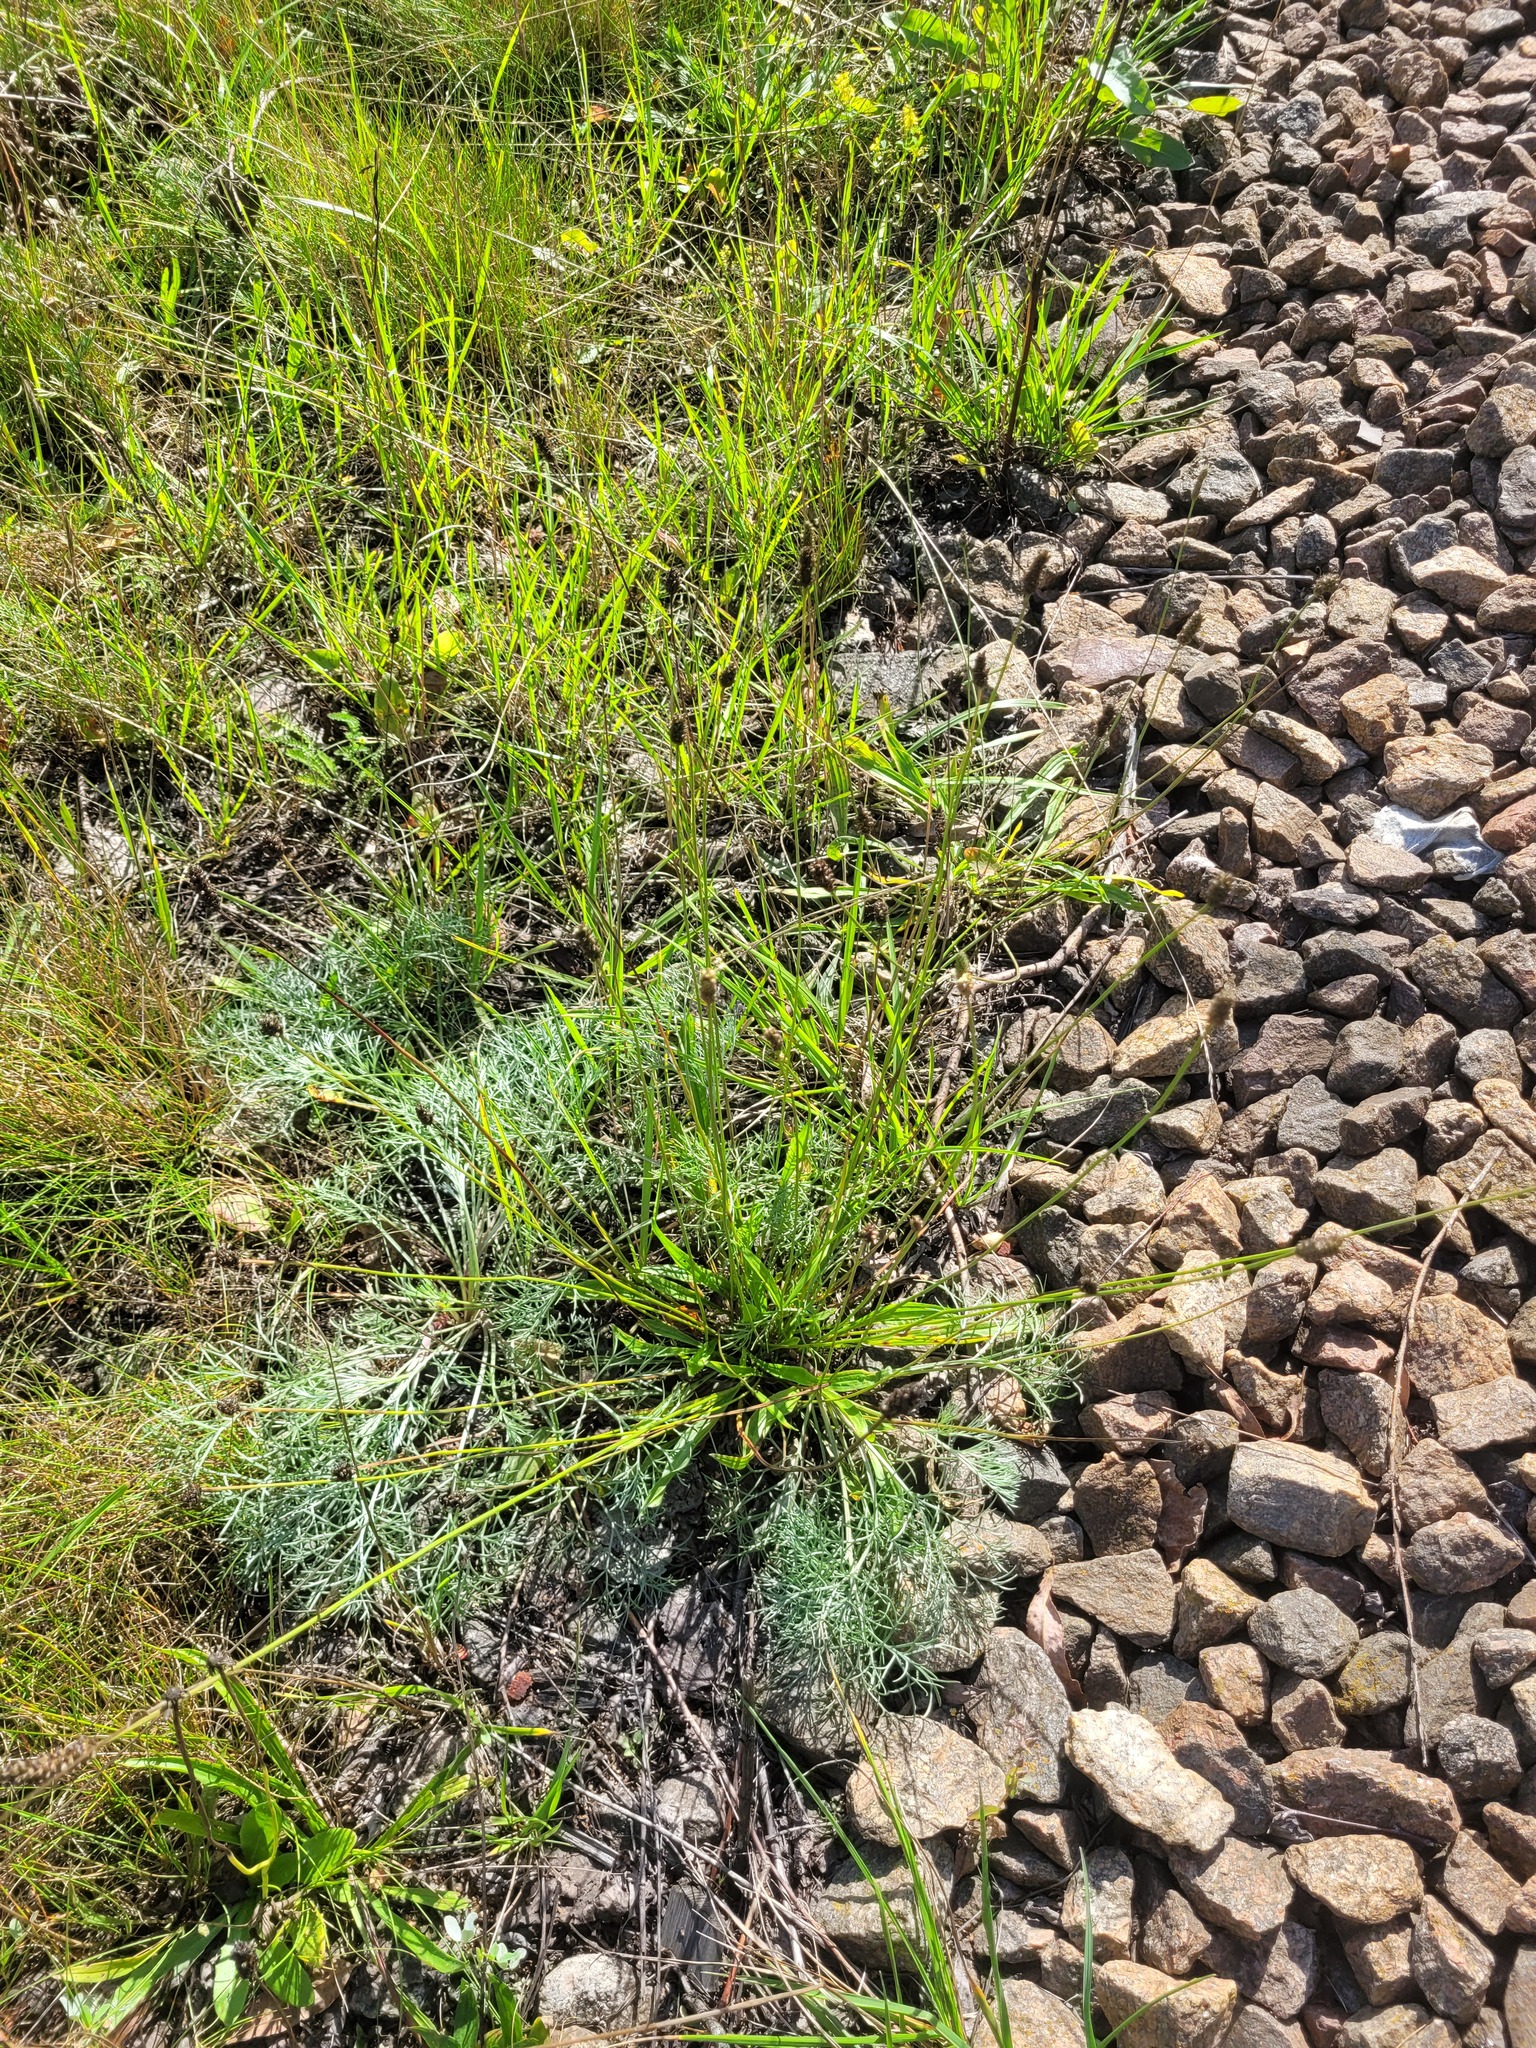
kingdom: Plantae
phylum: Tracheophyta
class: Magnoliopsida
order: Lamiales
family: Plantaginaceae
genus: Plantago
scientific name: Plantago lanceolata
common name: Ribwort plantain
